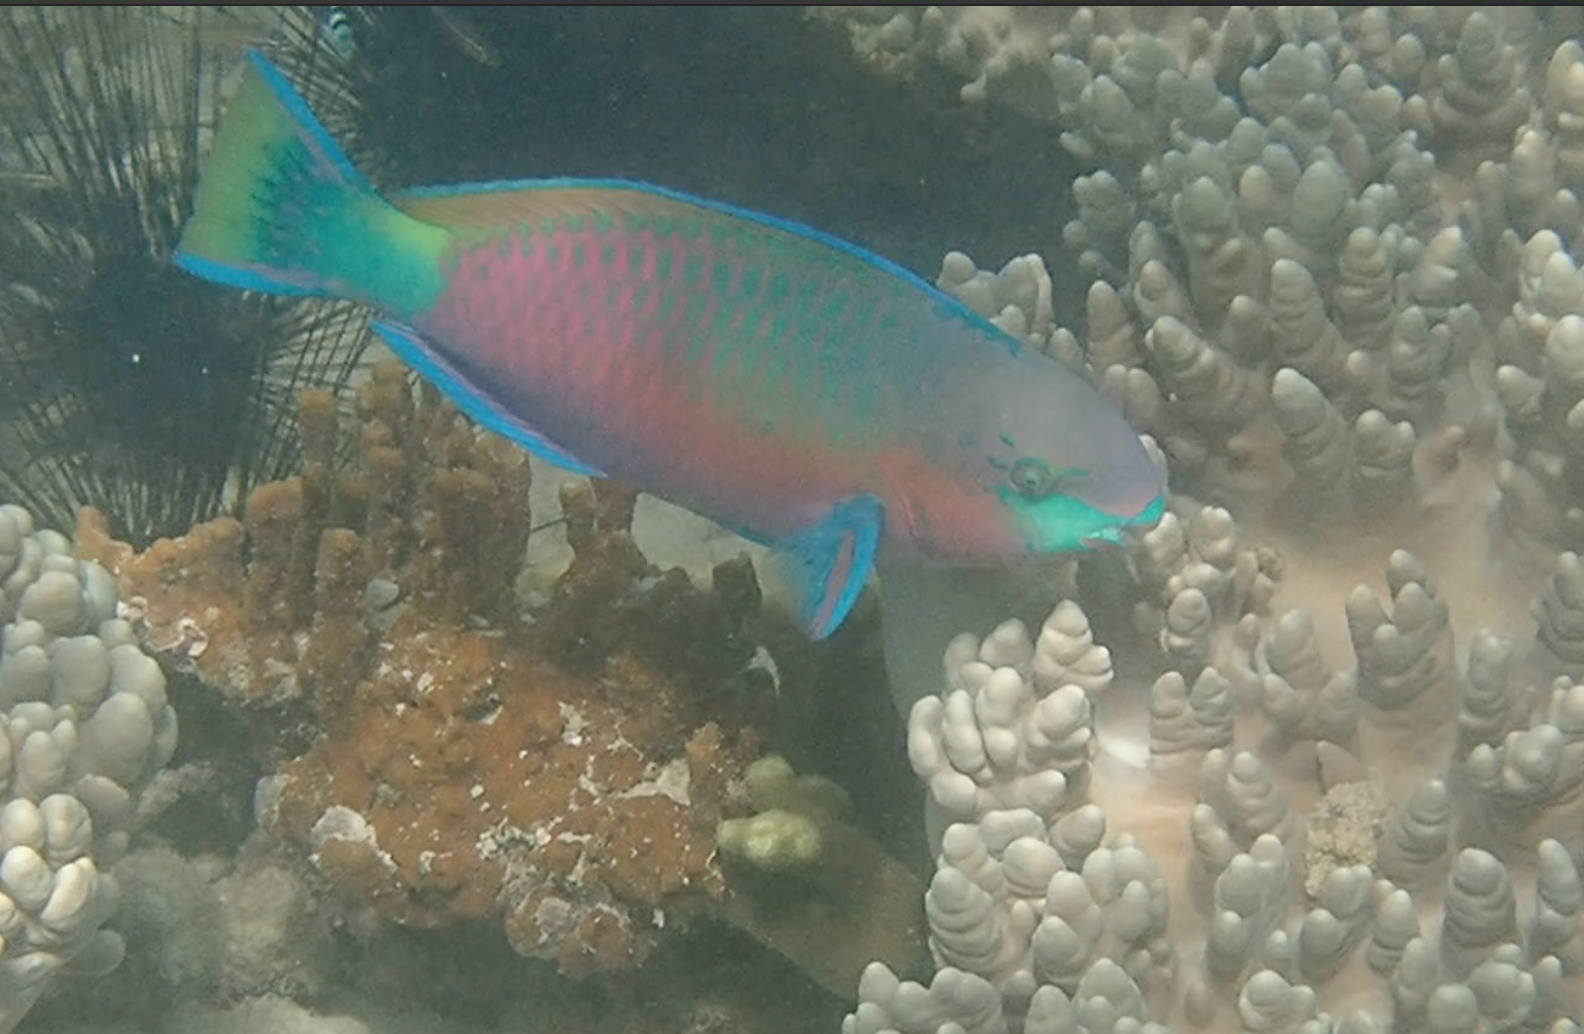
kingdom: Animalia
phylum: Chordata
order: Perciformes
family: Scaridae
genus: Scarus
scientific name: Scarus quoyi
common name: Quoy's parrotfish
